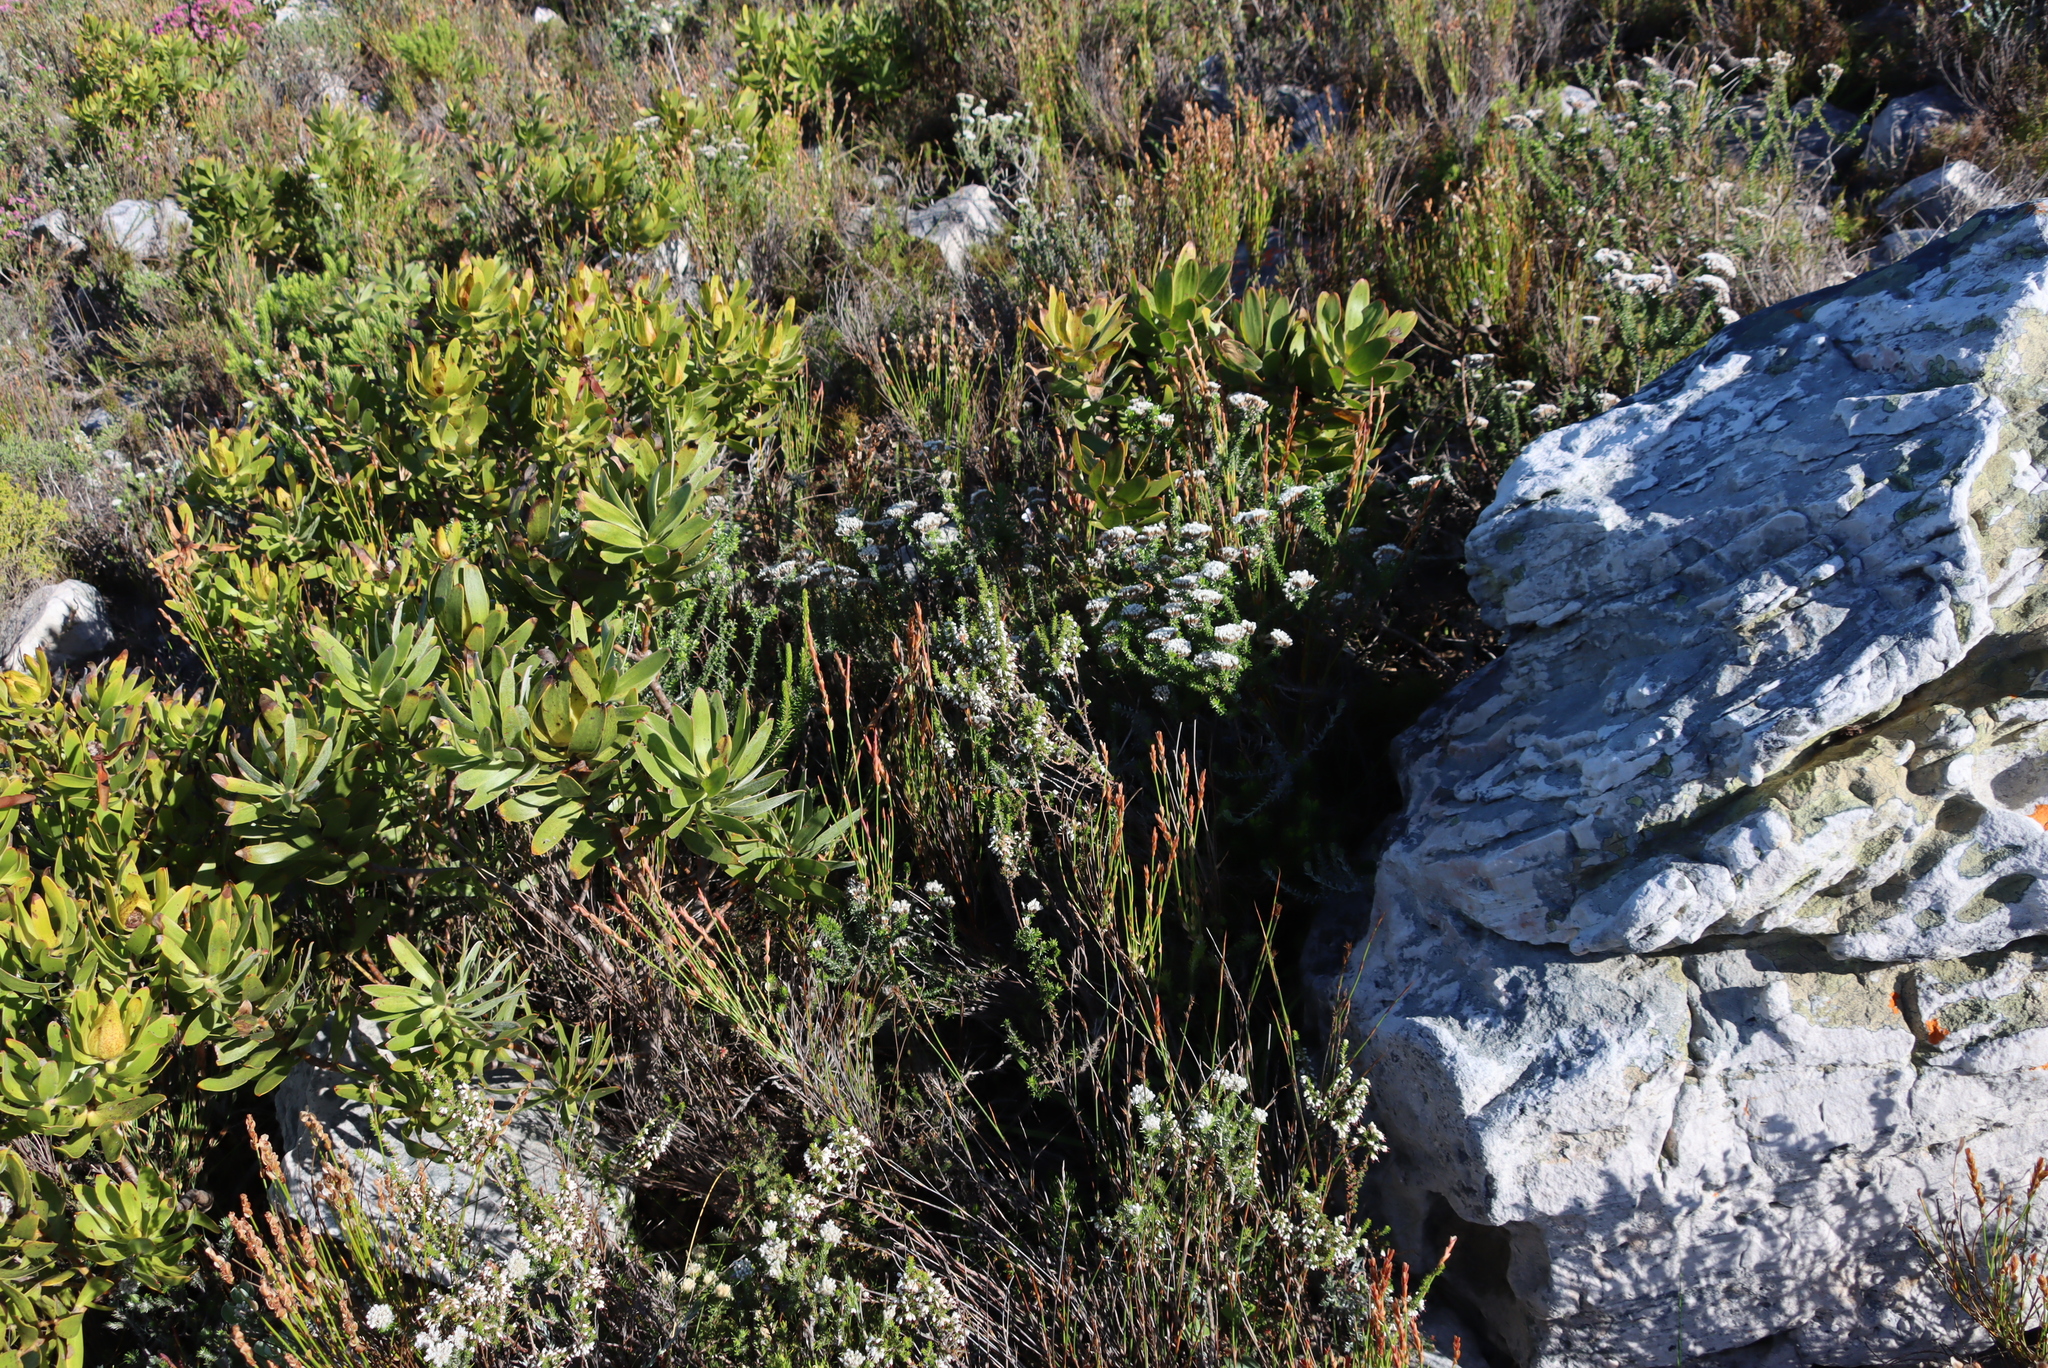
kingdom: Plantae
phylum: Tracheophyta
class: Magnoliopsida
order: Proteales
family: Proteaceae
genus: Leucadendron
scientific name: Leucadendron laureolum
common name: Golden sunshinebush
